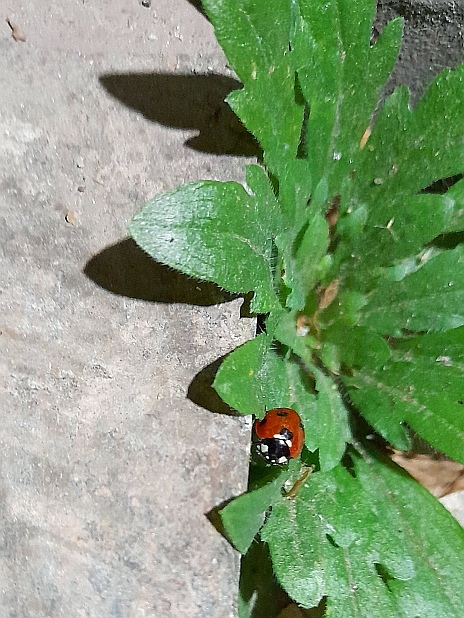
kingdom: Plantae
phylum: Tracheophyta
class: Magnoliopsida
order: Asterales
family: Asteraceae
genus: Erigeron
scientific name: Erigeron canadensis
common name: Canadian fleabane
